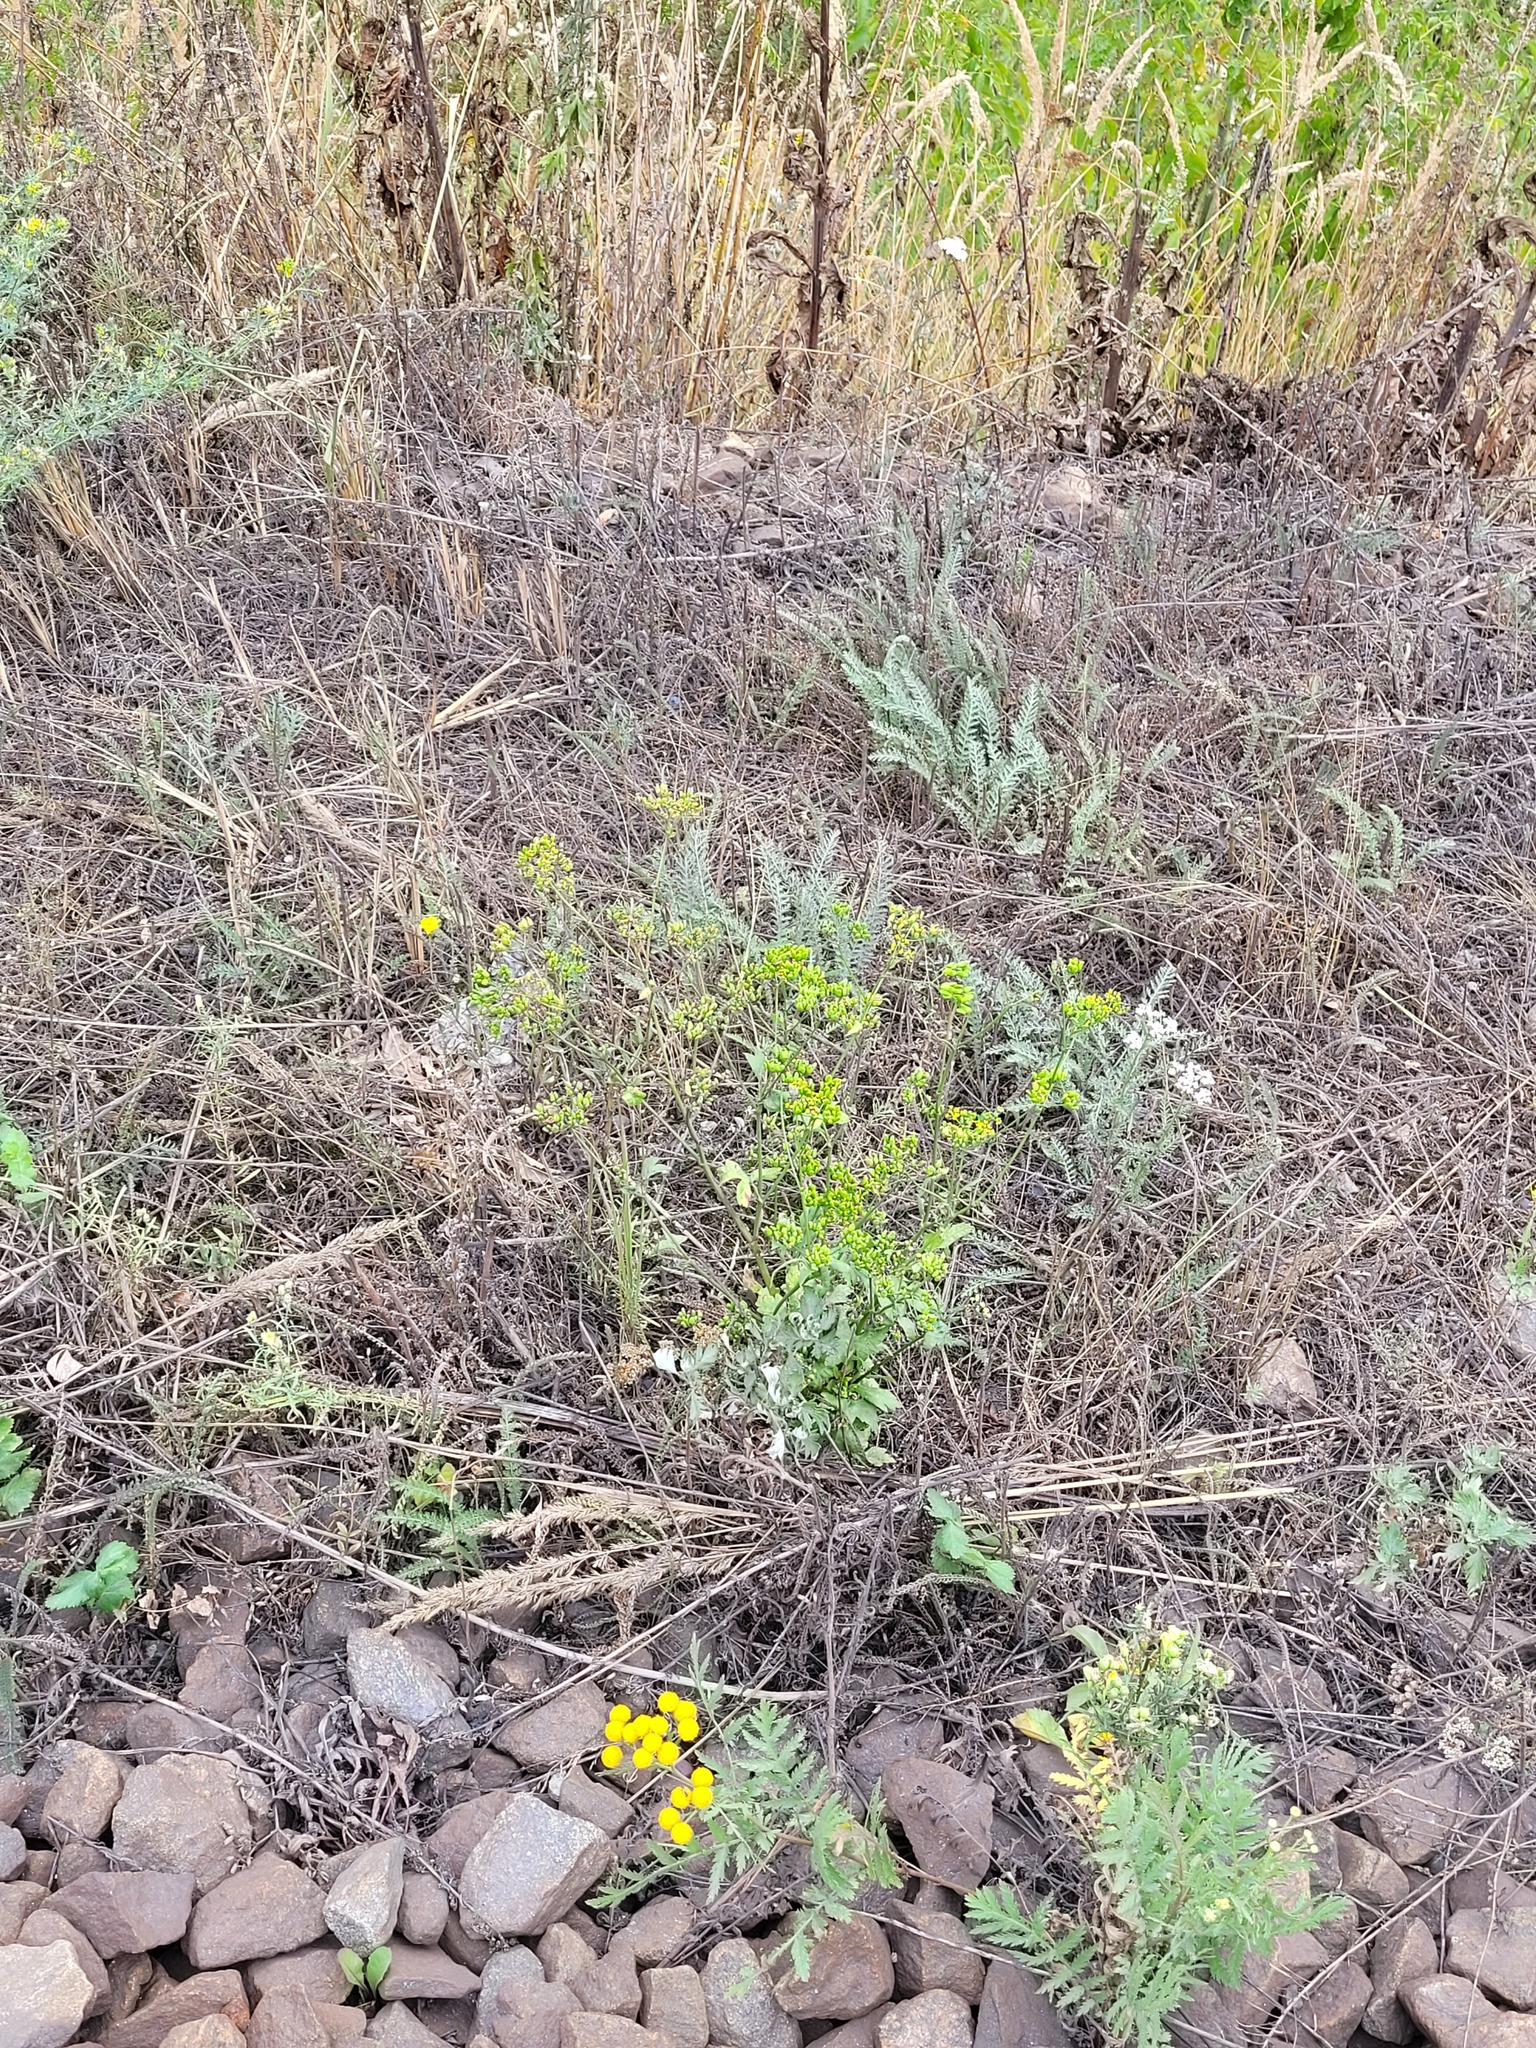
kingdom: Plantae
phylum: Tracheophyta
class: Magnoliopsida
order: Apiales
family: Apiaceae
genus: Pastinaca
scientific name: Pastinaca sativa
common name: Wild parsnip
